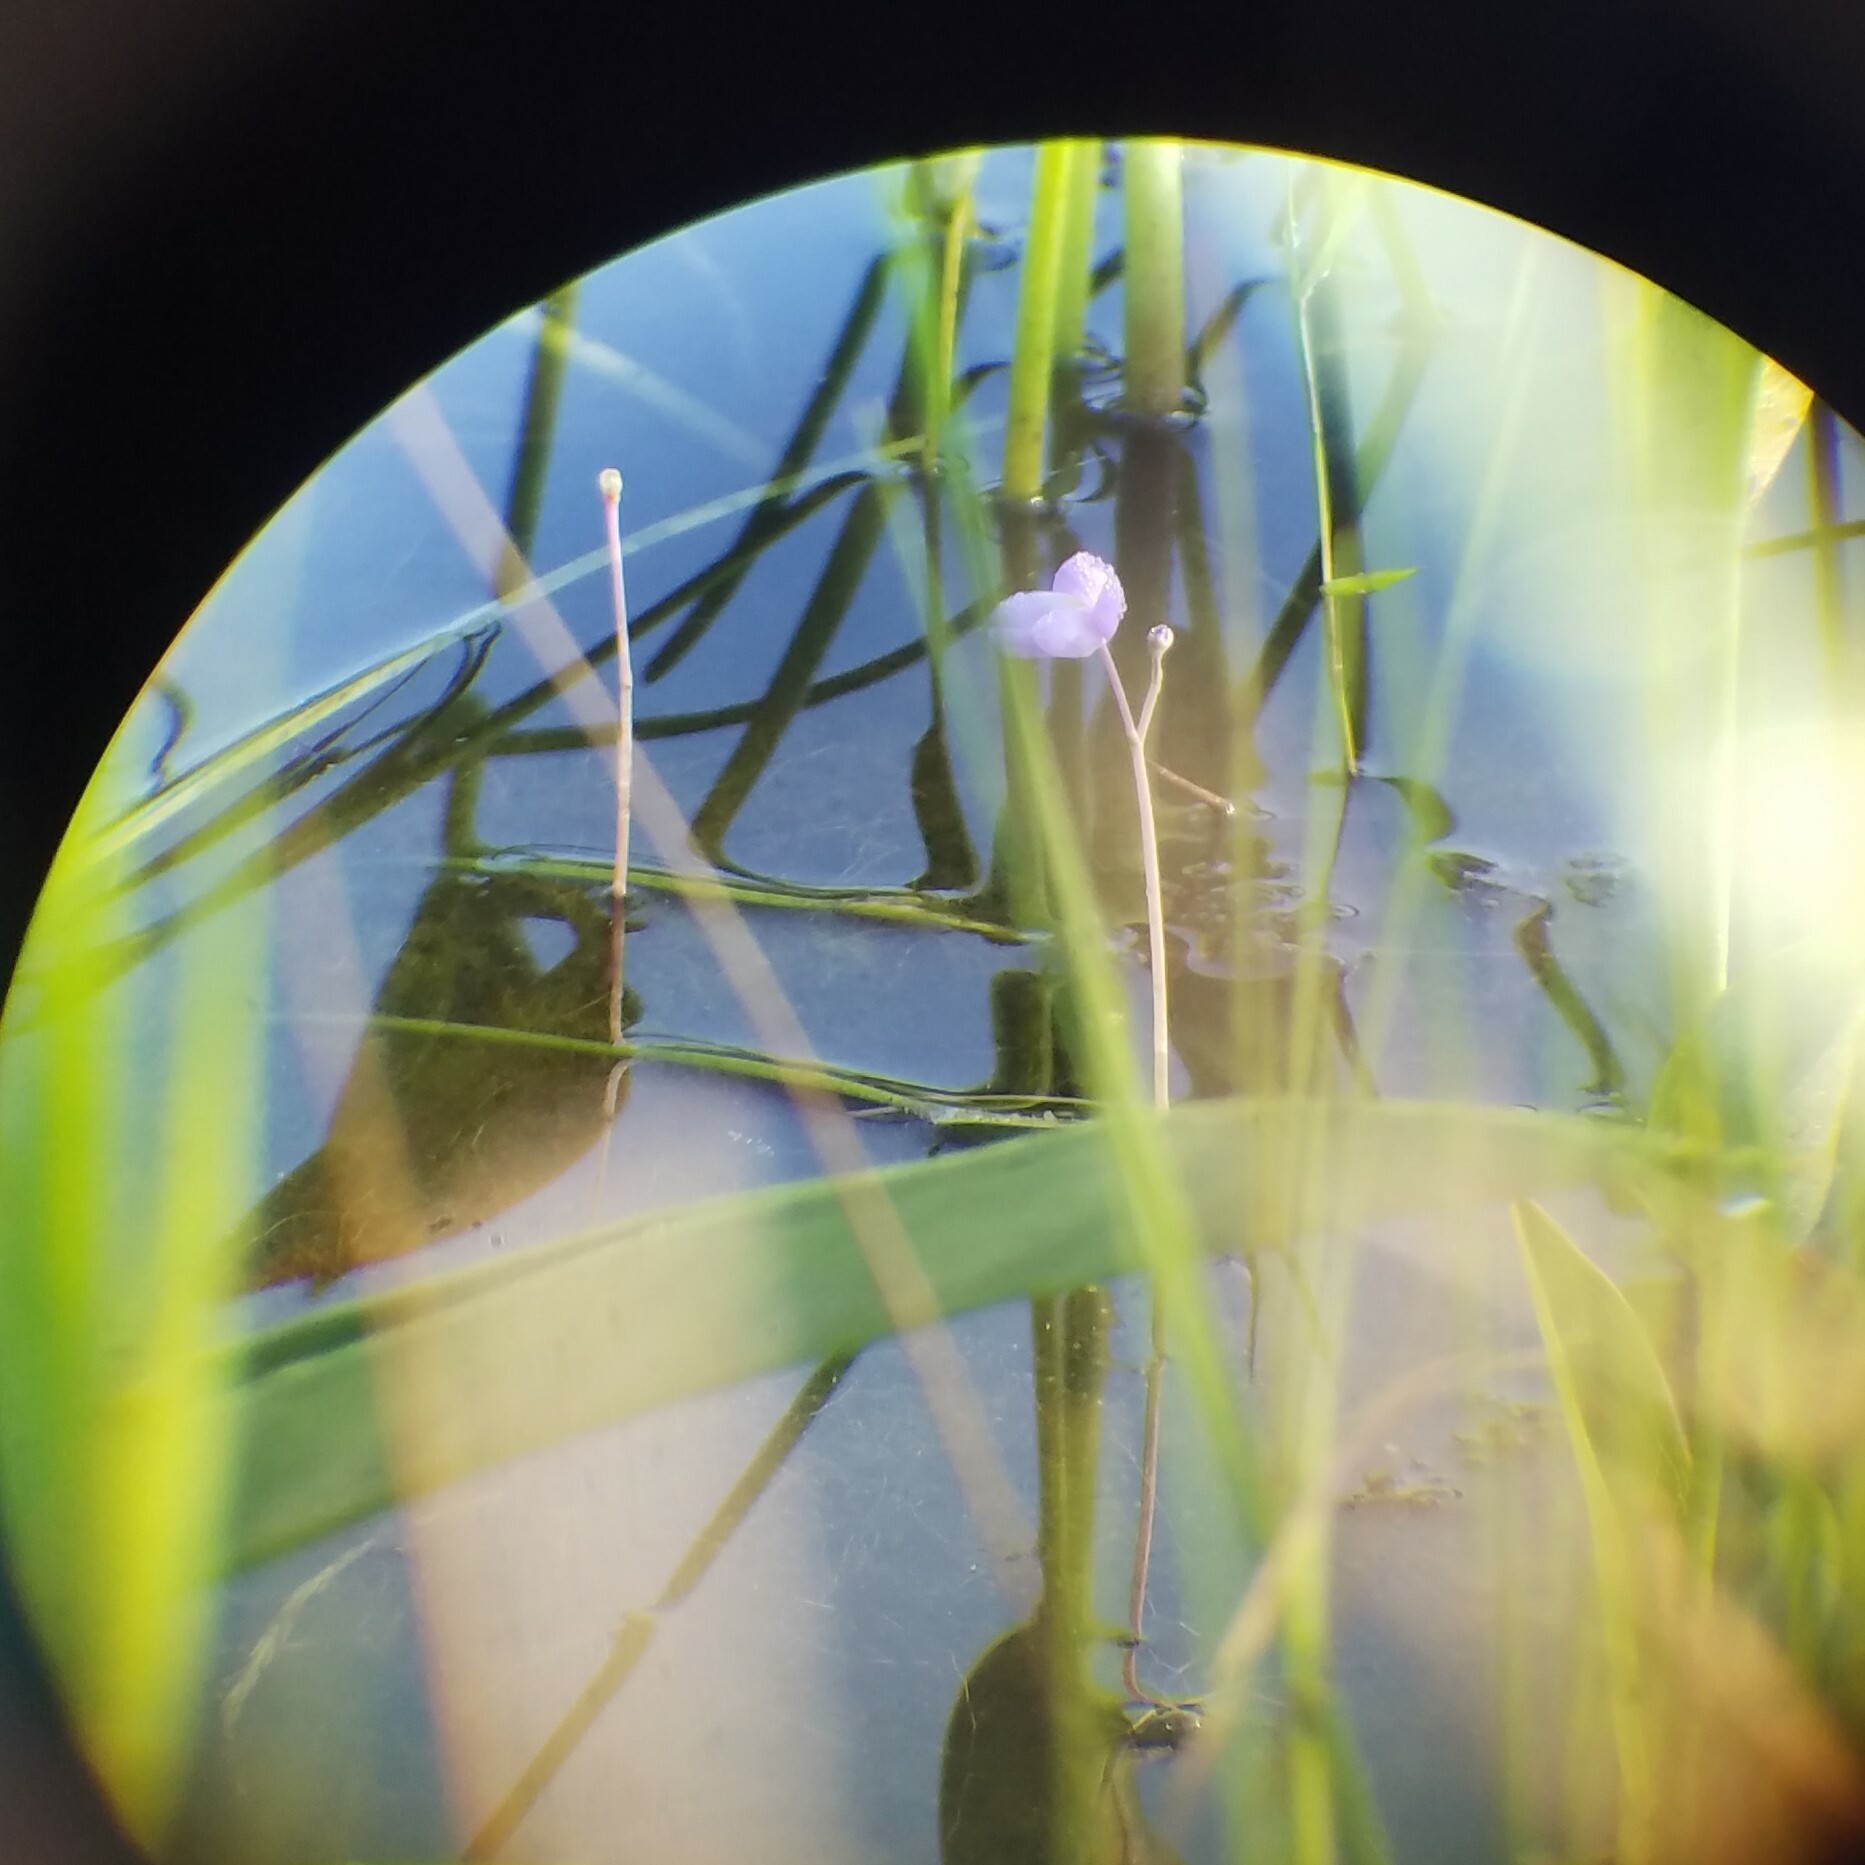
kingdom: Plantae
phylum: Tracheophyta
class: Magnoliopsida
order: Lamiales
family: Lentibulariaceae
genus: Utricularia
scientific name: Utricularia purpurea
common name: Eastern purple bladderwort
